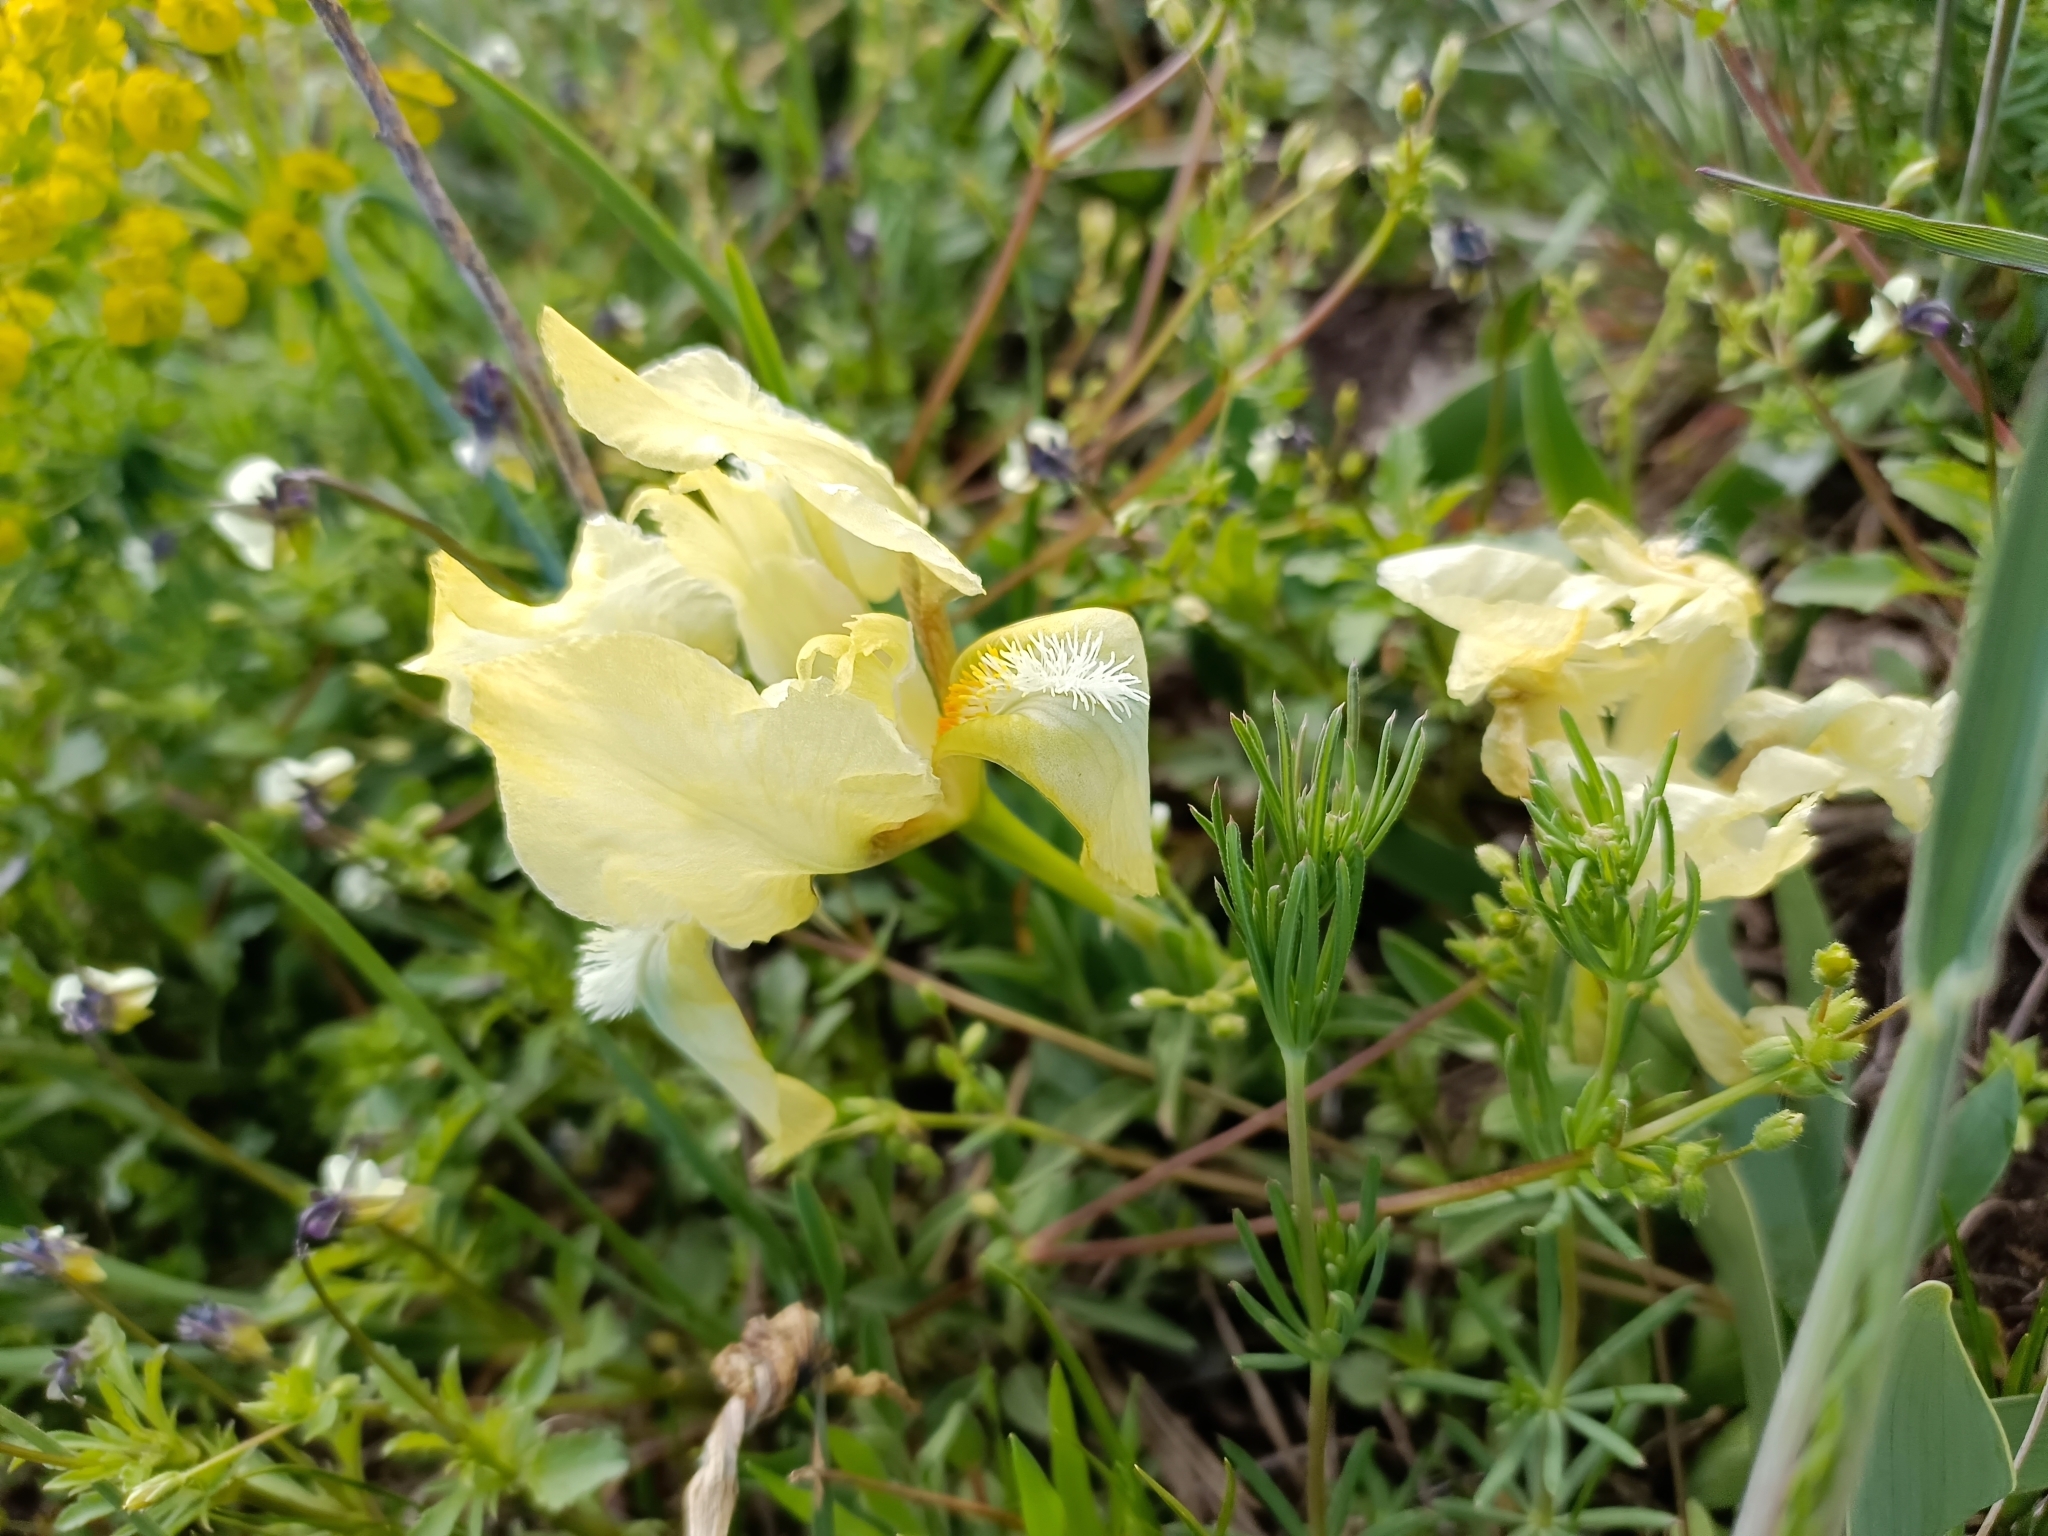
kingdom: Plantae
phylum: Tracheophyta
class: Liliopsida
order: Asparagales
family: Iridaceae
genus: Iris
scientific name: Iris pumila
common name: Dwarf iris
